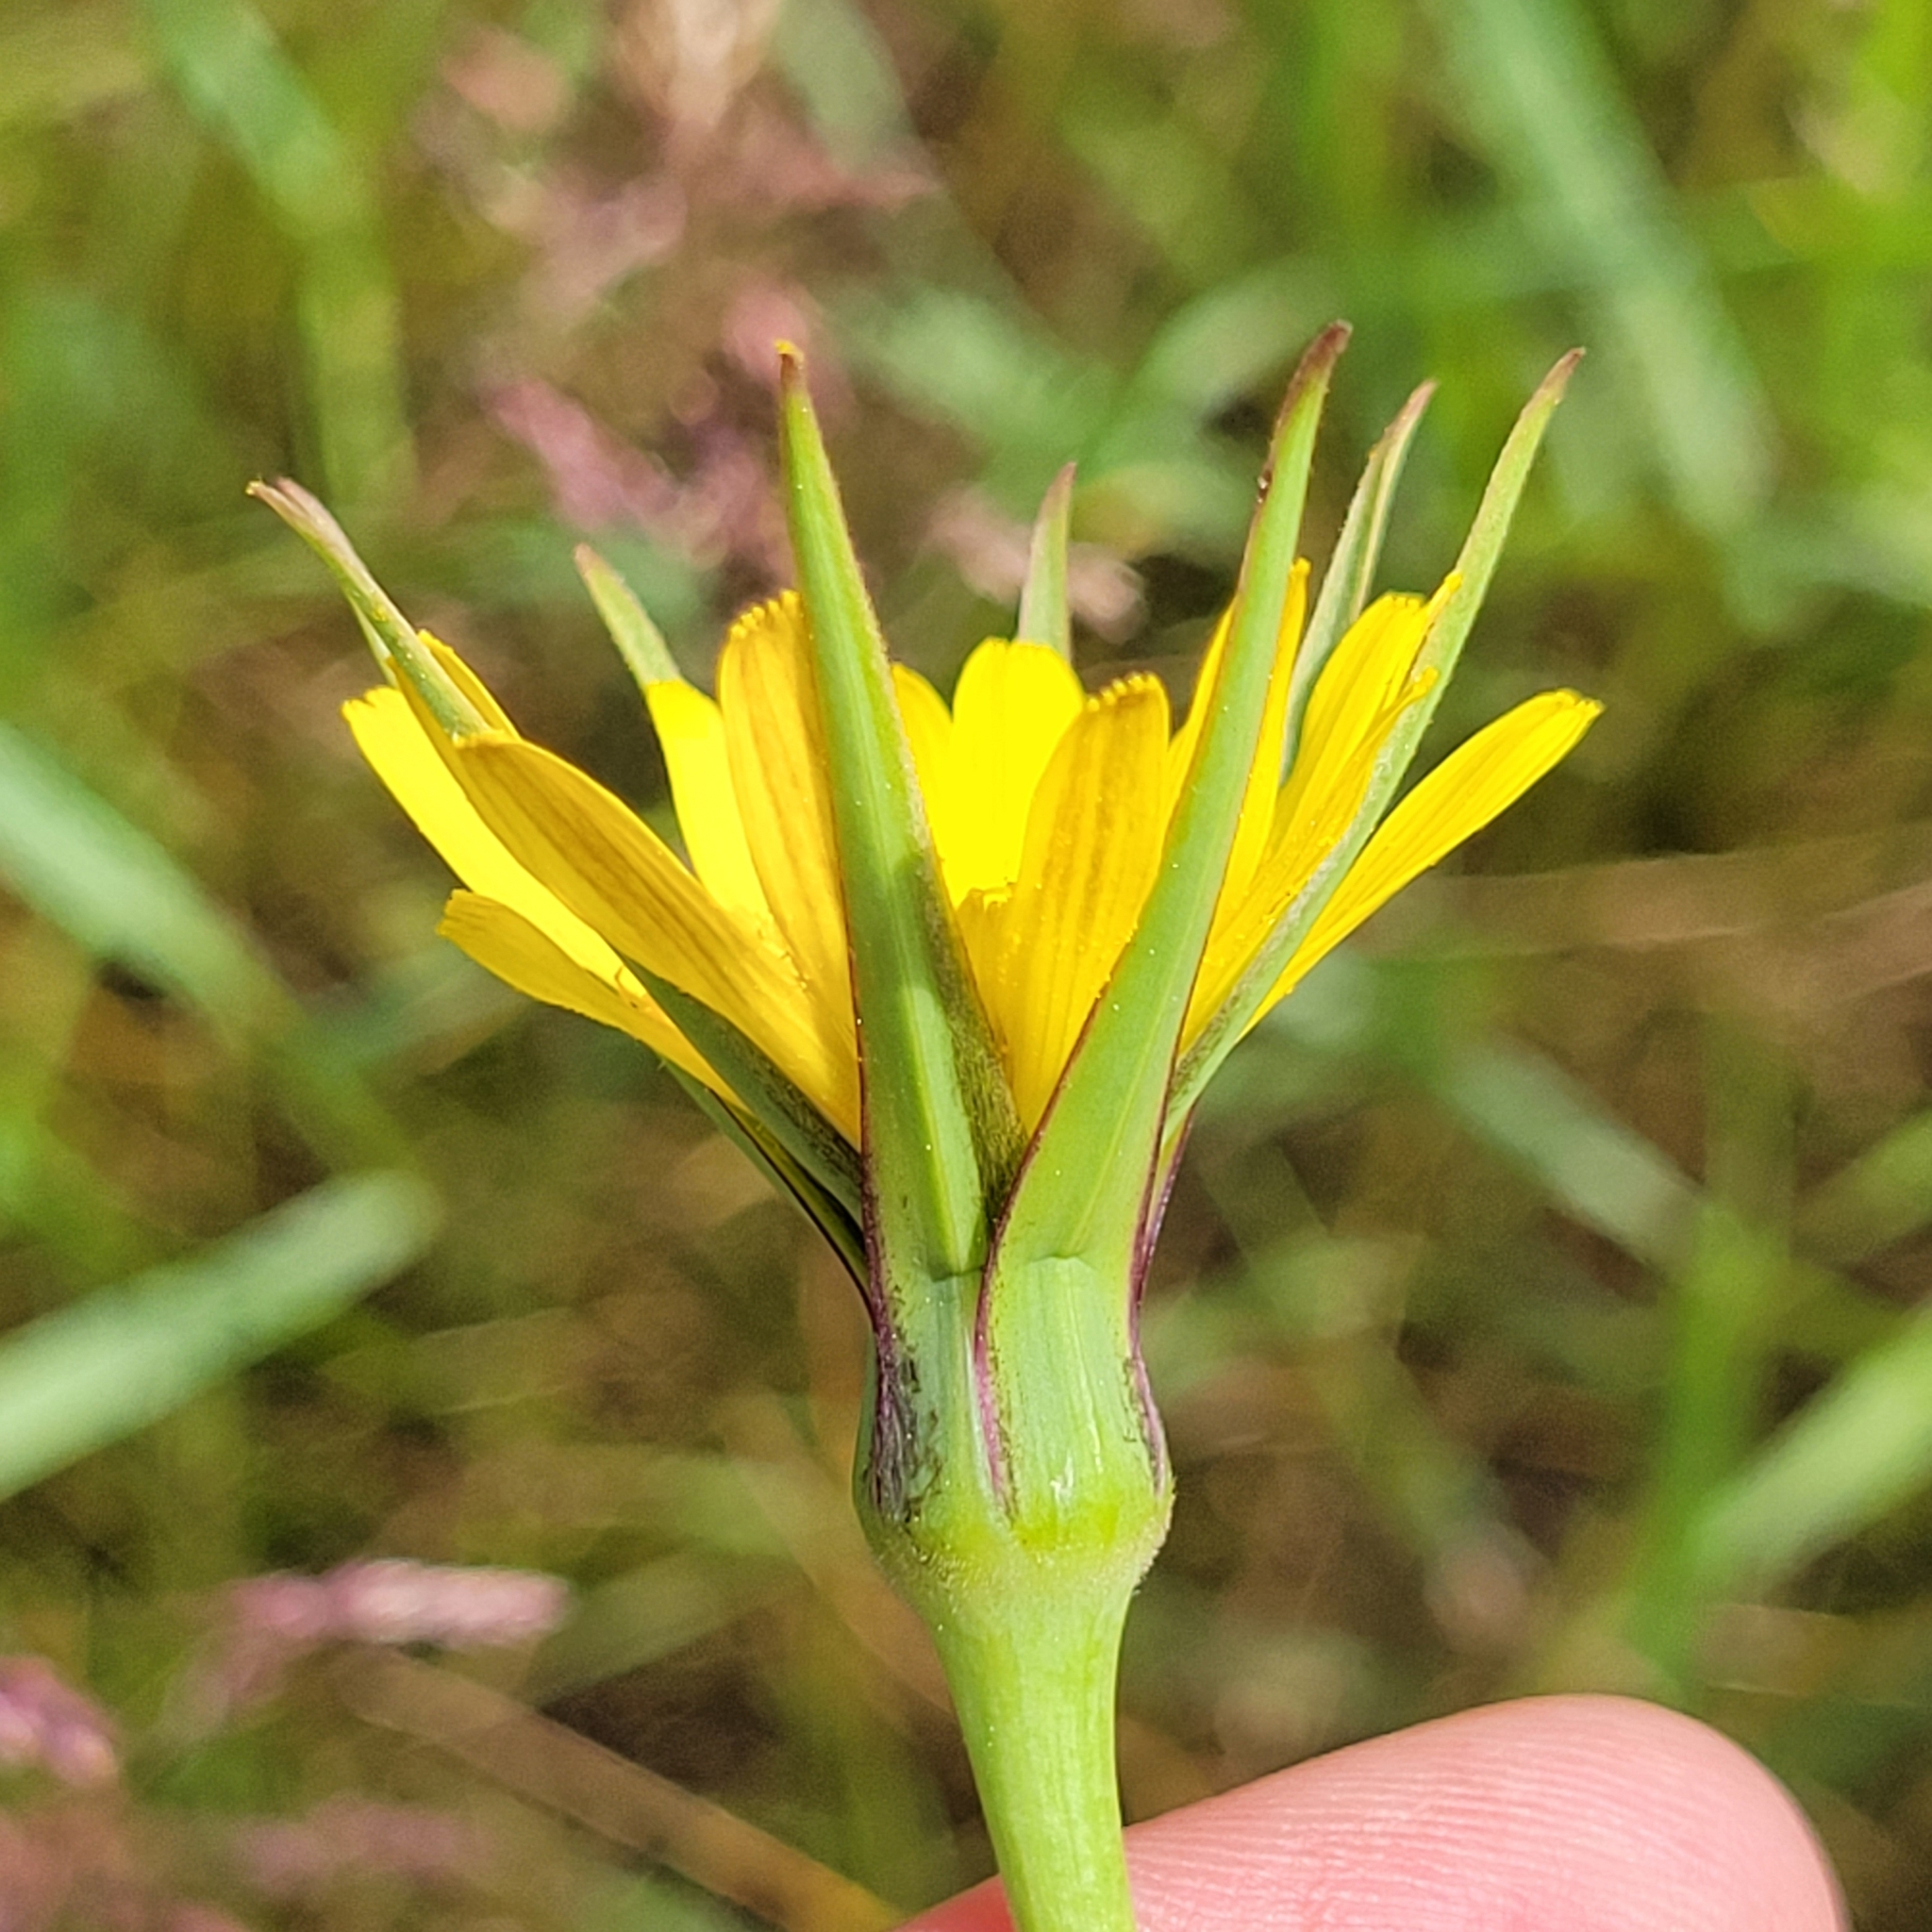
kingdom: Plantae
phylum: Tracheophyta
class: Magnoliopsida
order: Asterales
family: Asteraceae
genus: Tragopogon
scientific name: Tragopogon dubius
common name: Yellow salsify
